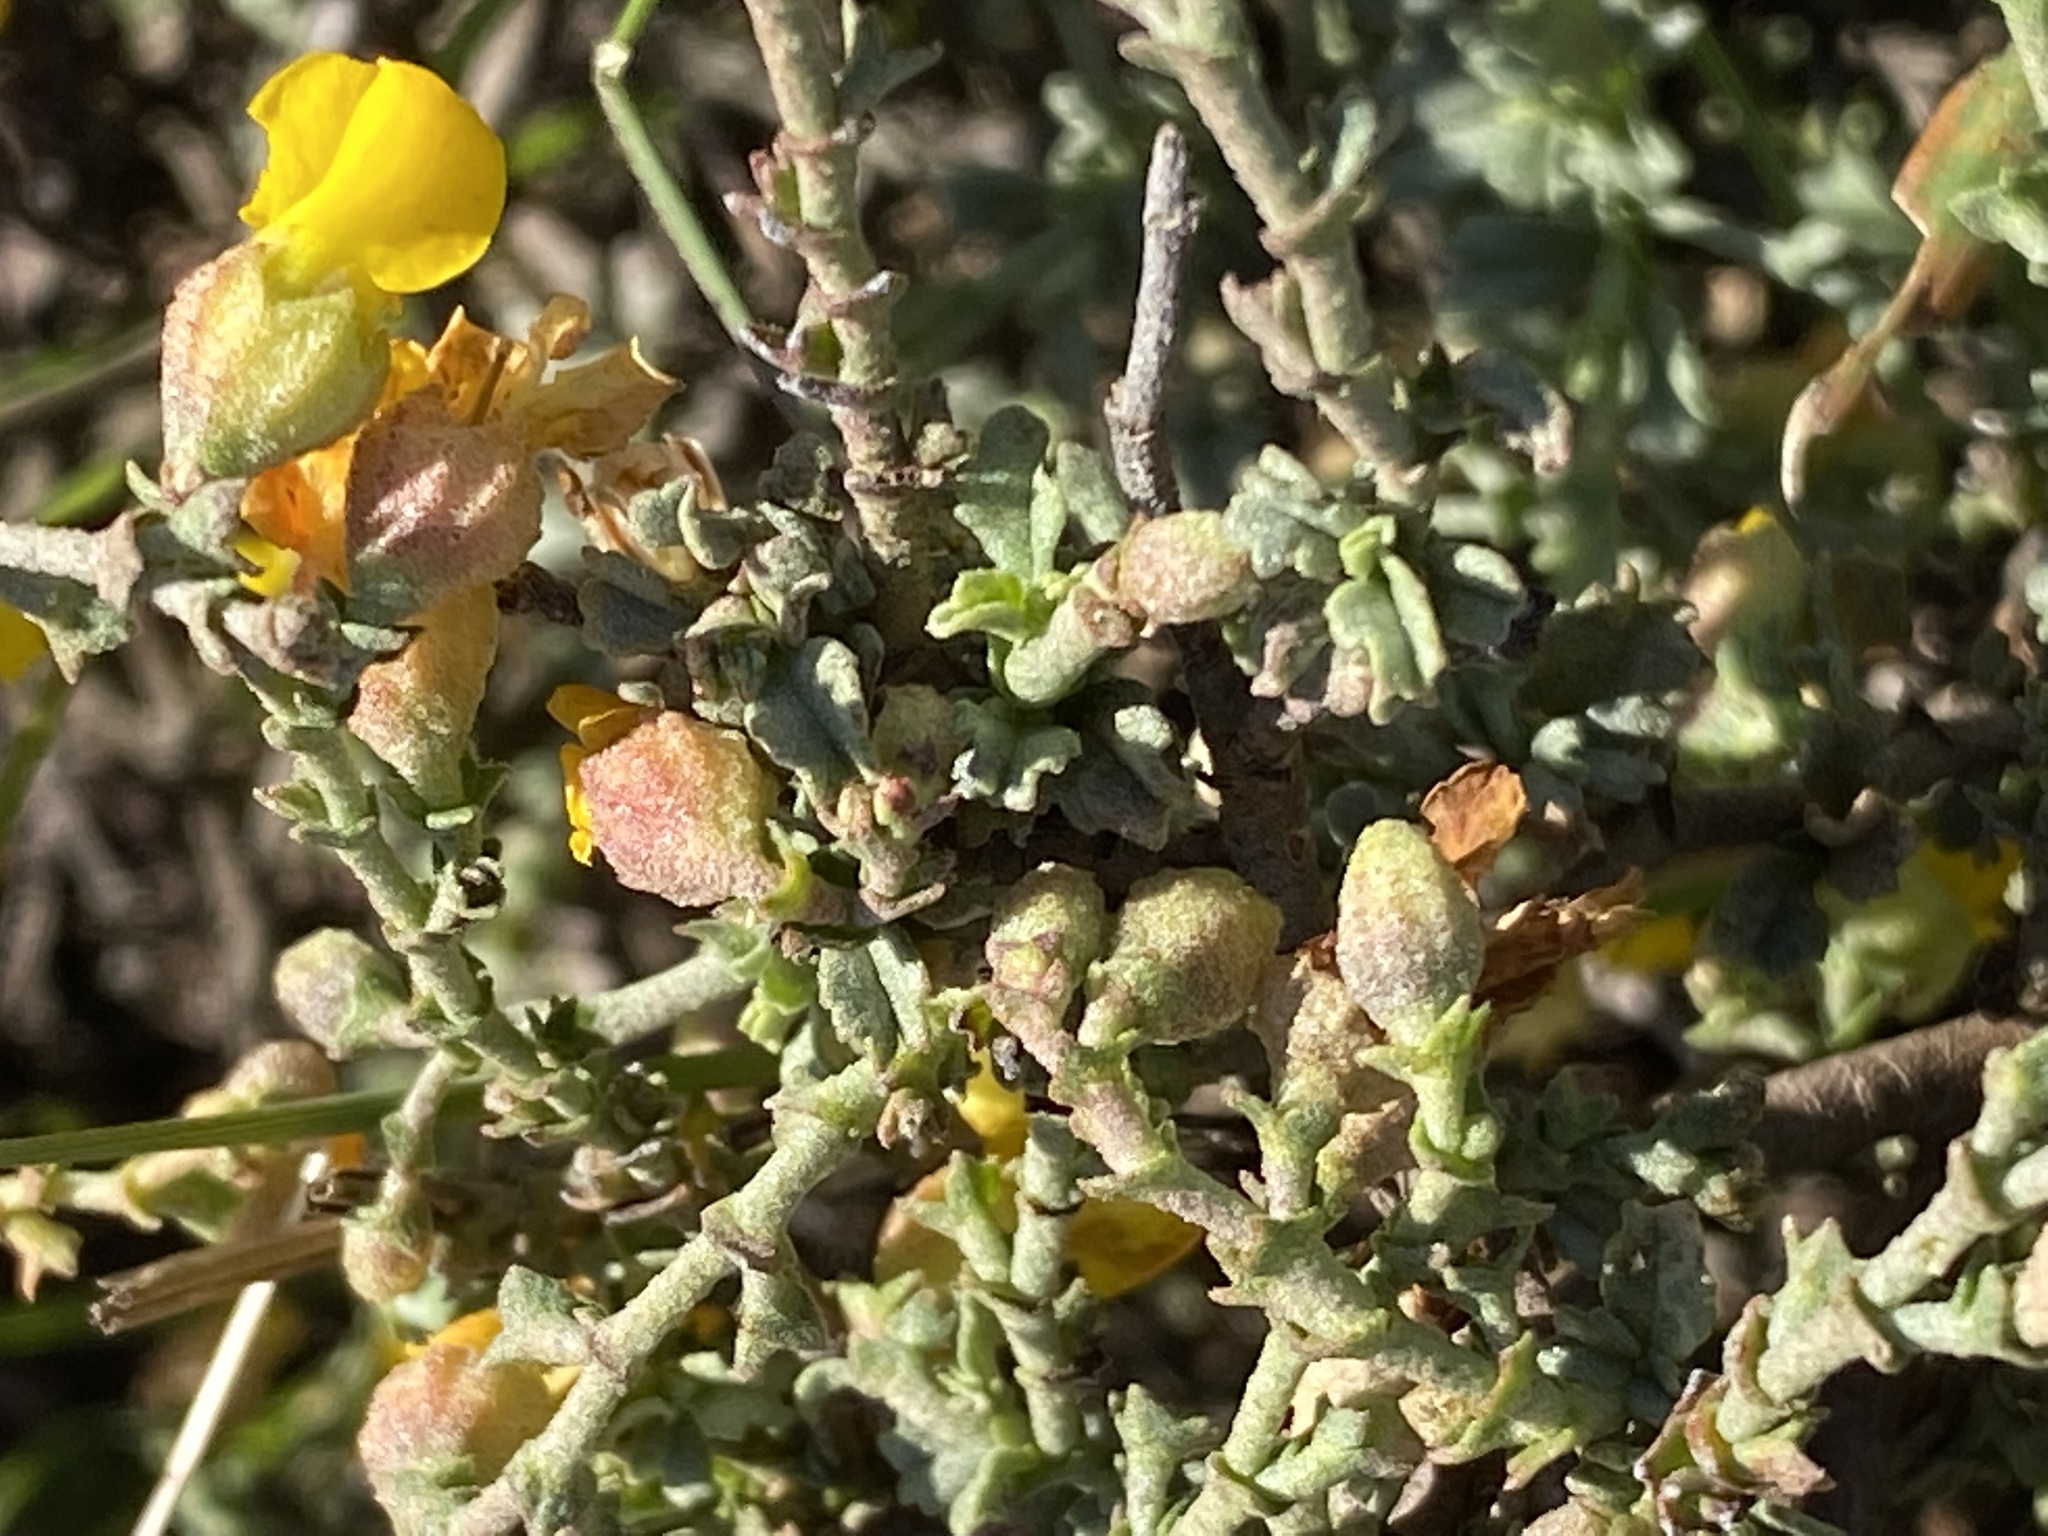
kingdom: Plantae
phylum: Tracheophyta
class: Magnoliopsida
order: Malvales
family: Malvaceae
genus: Hermannia
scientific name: Hermannia cuneifolia
